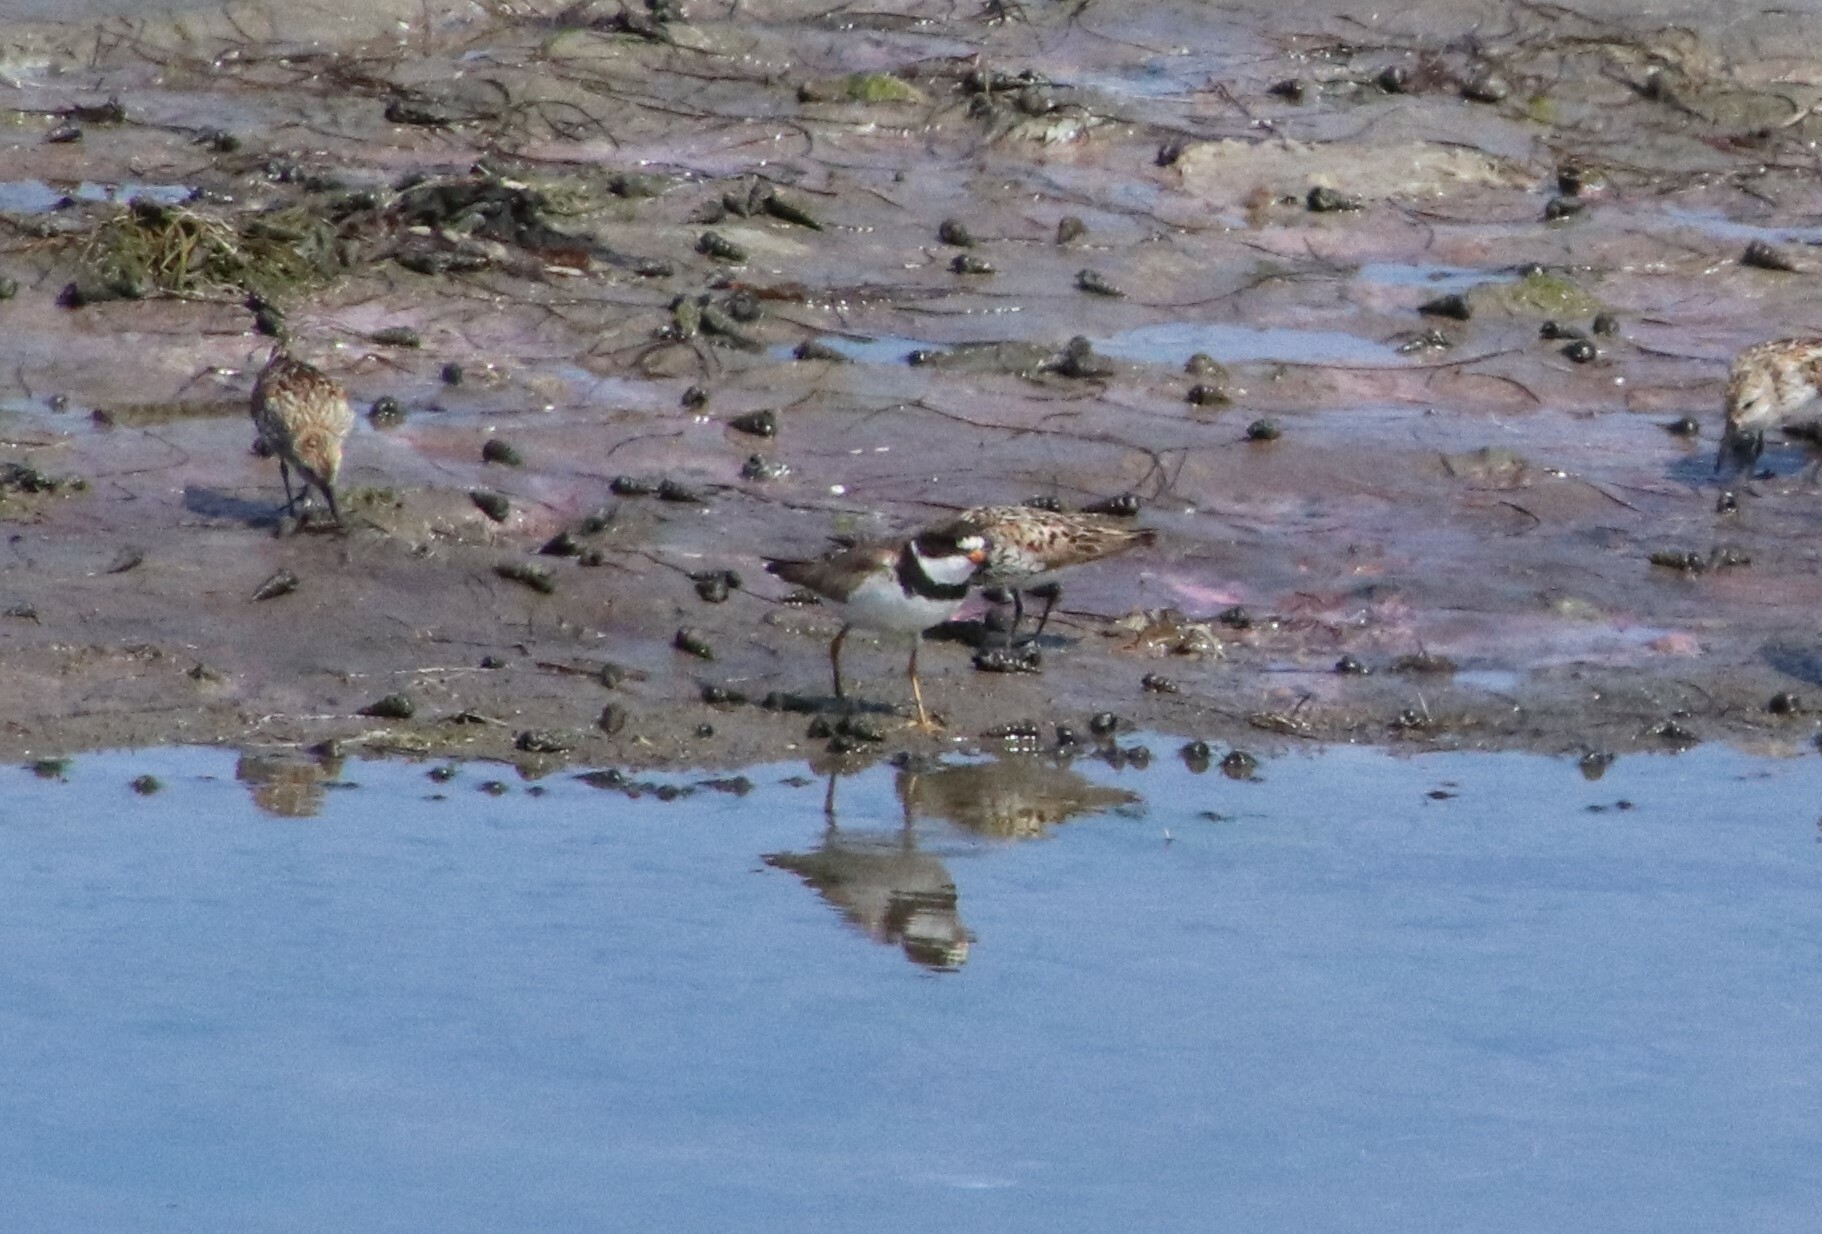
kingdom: Animalia
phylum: Chordata
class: Aves
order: Charadriiformes
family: Charadriidae
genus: Charadrius
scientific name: Charadrius semipalmatus
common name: Semipalmated plover
